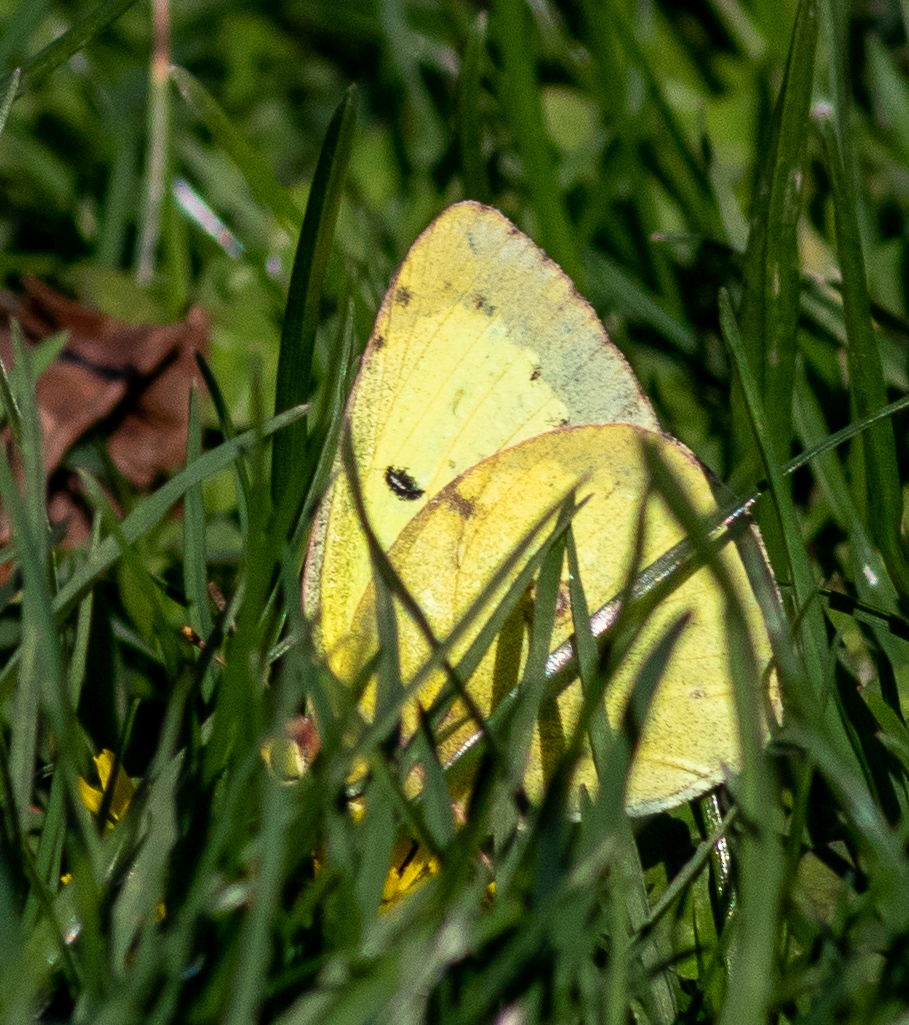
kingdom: Animalia
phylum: Arthropoda
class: Insecta
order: Lepidoptera
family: Pieridae
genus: Colias
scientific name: Colias philodice
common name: Clouded sulphur
